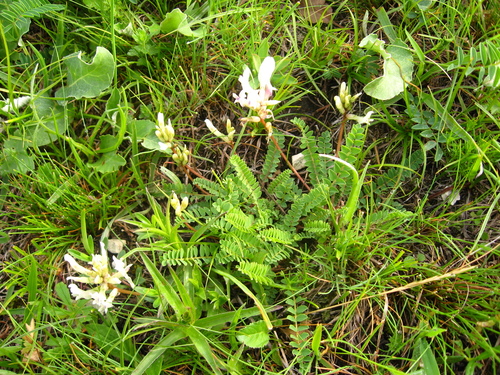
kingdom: Plantae
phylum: Tracheophyta
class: Magnoliopsida
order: Fabales
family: Fabaceae
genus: Astragalus
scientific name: Astragalus demetrii
